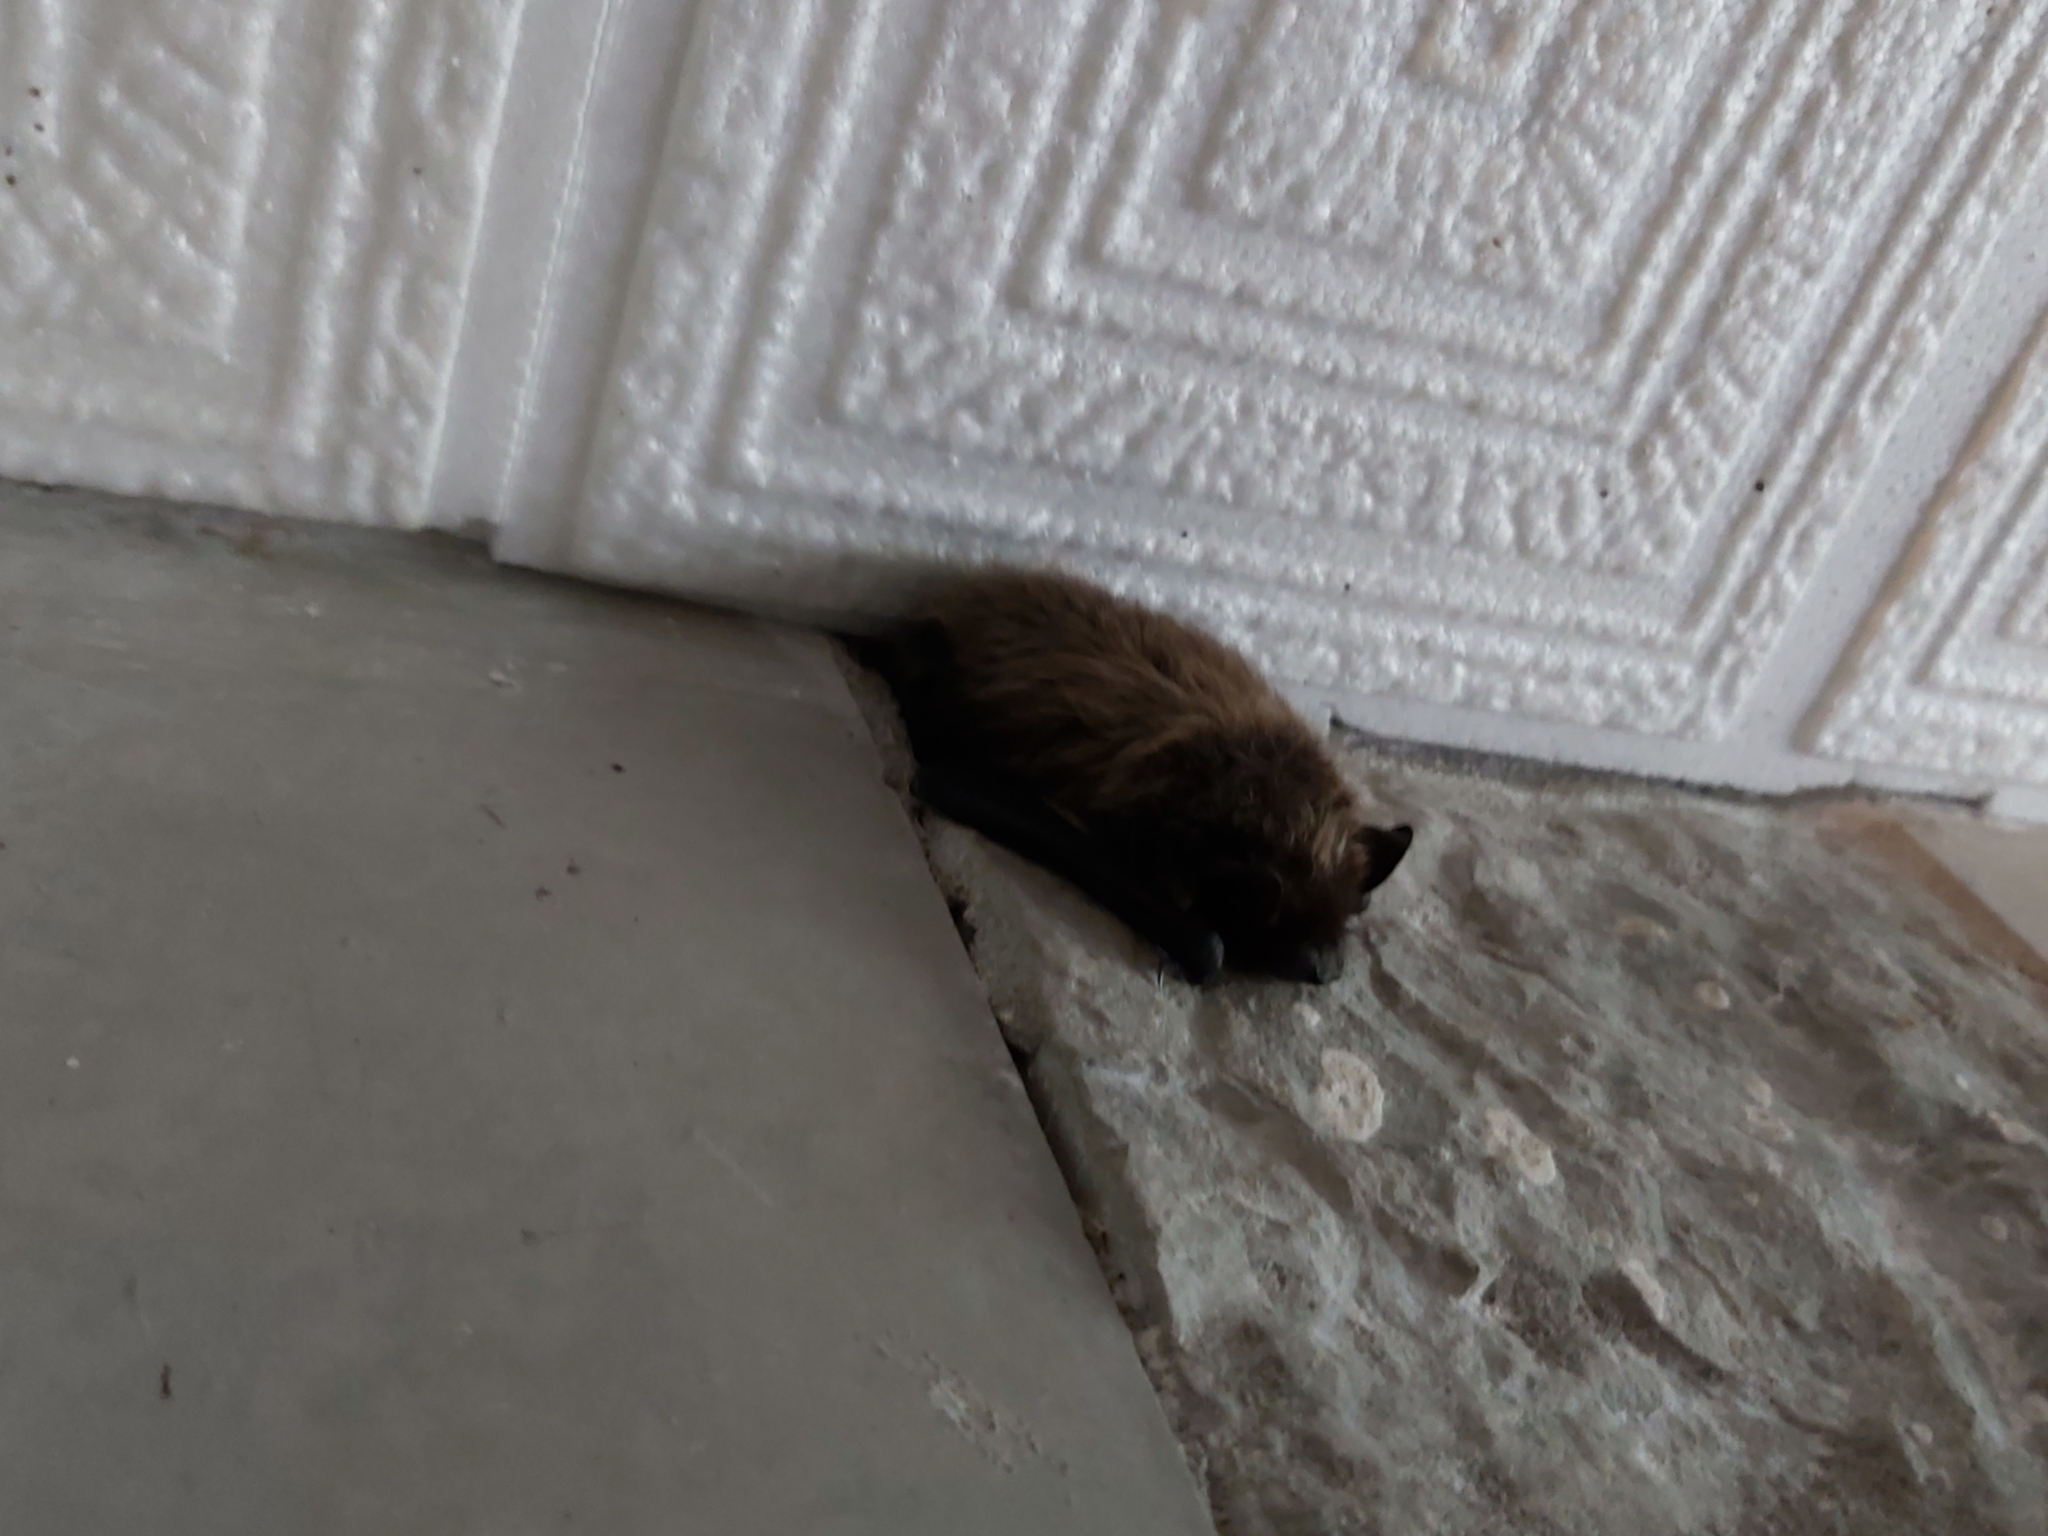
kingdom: Animalia
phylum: Chordata
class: Mammalia
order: Chiroptera
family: Vespertilionidae
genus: Eptesicus
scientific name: Eptesicus nilssonii
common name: Northern bat
